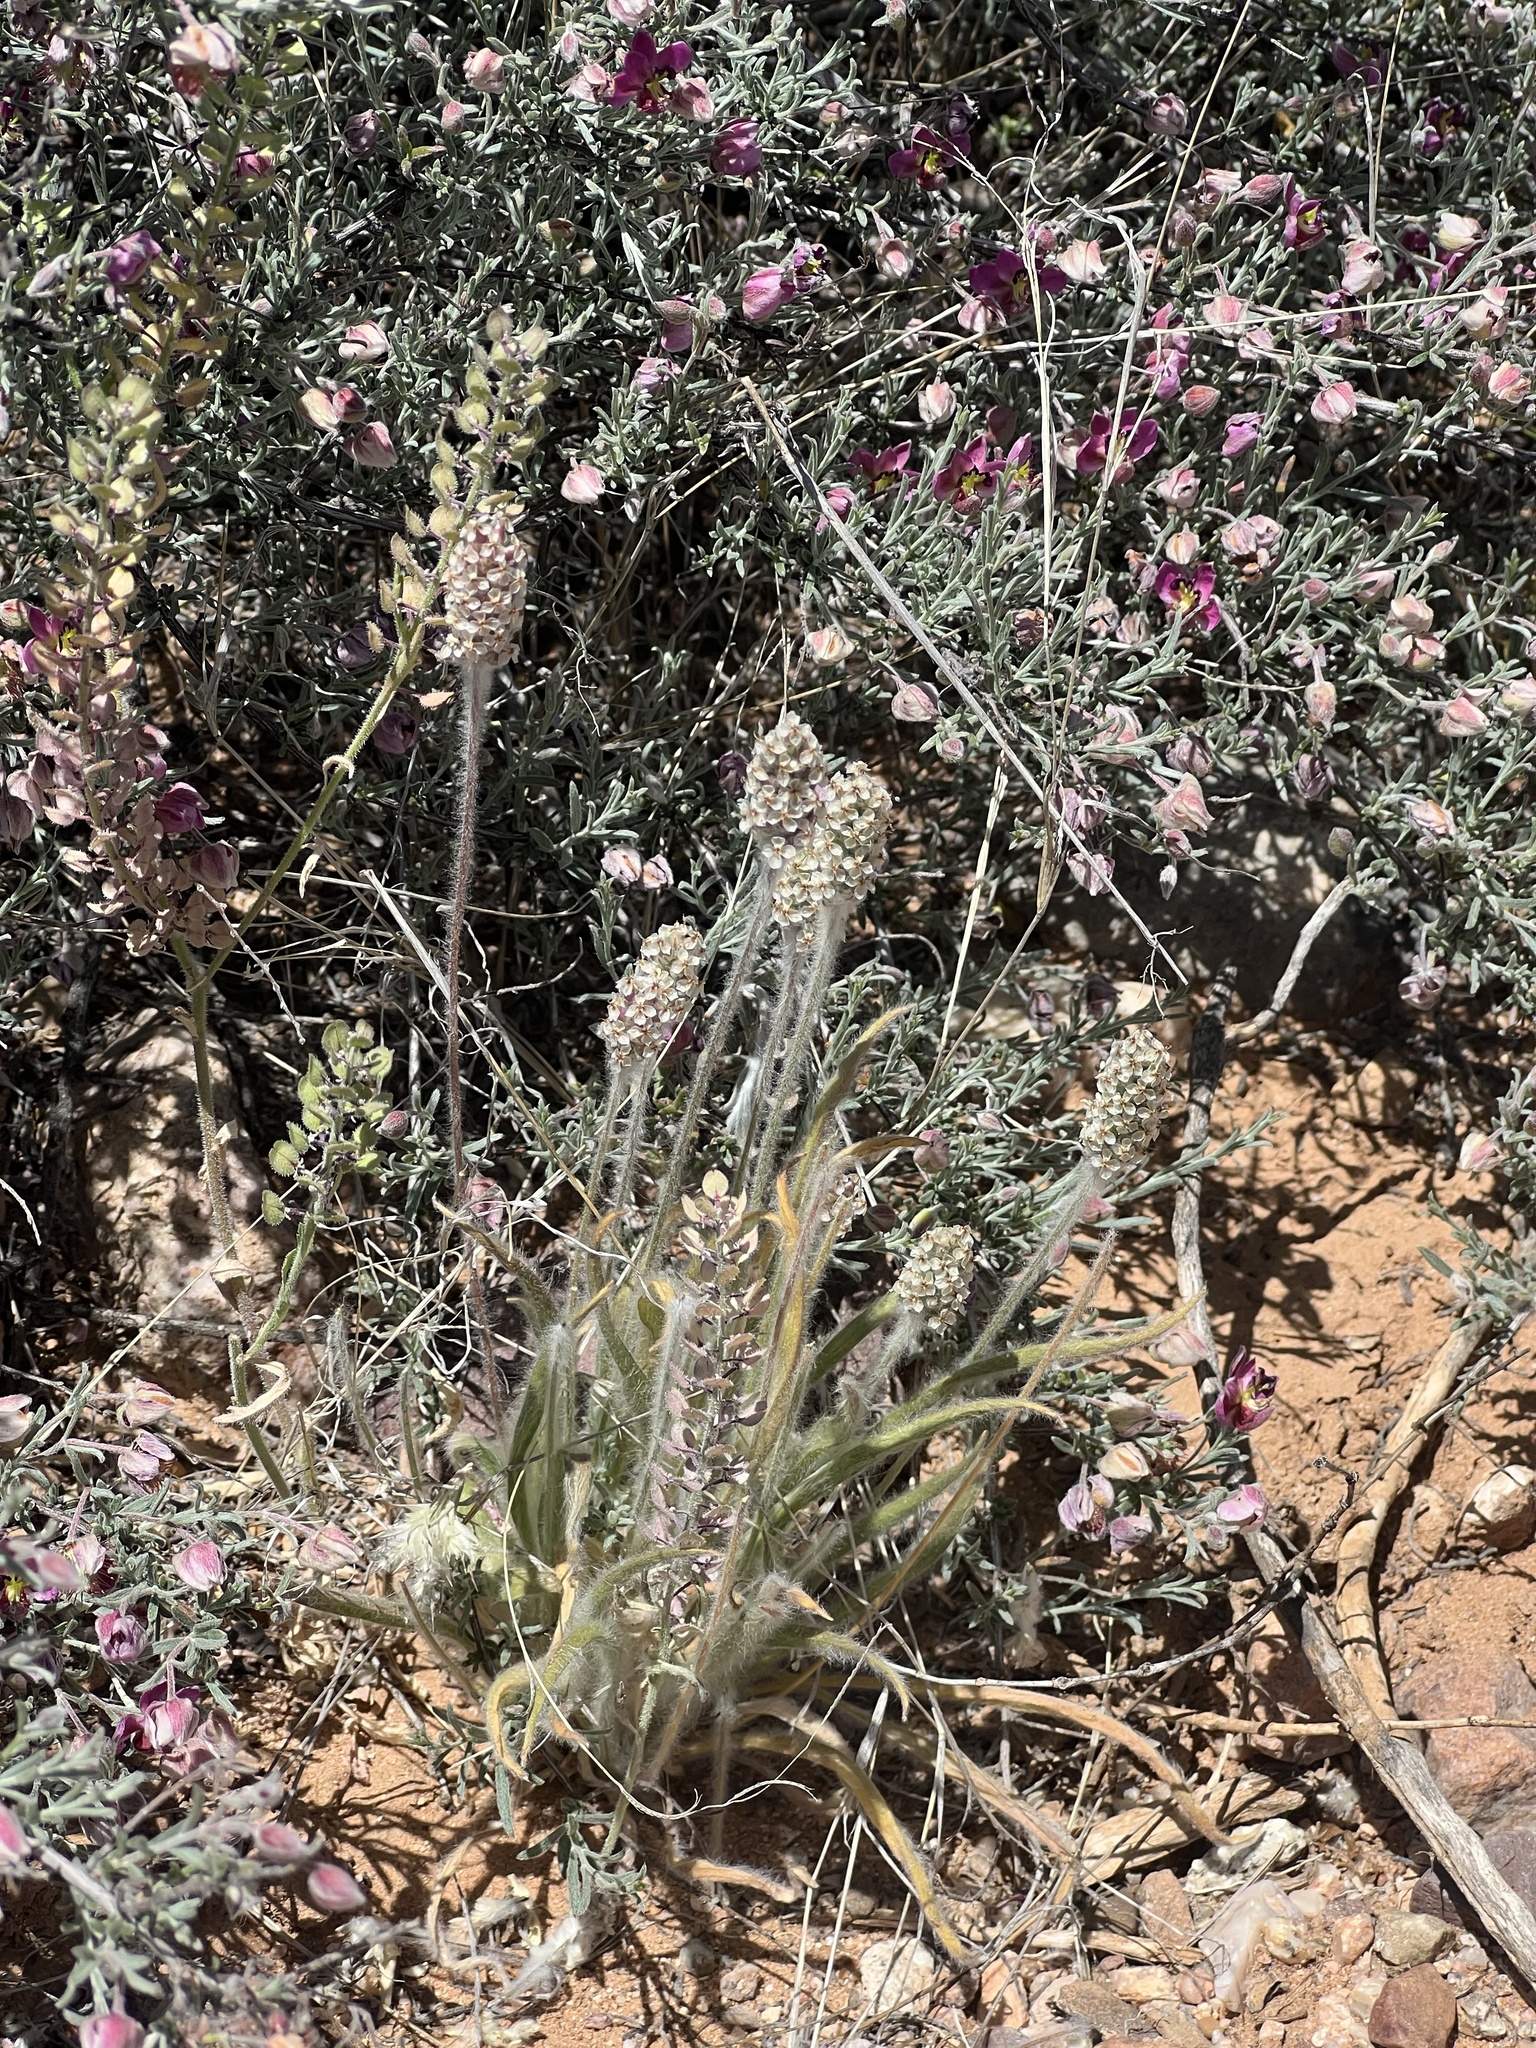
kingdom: Plantae
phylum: Tracheophyta
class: Magnoliopsida
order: Lamiales
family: Plantaginaceae
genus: Plantago
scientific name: Plantago ovata
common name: Blond plantain
